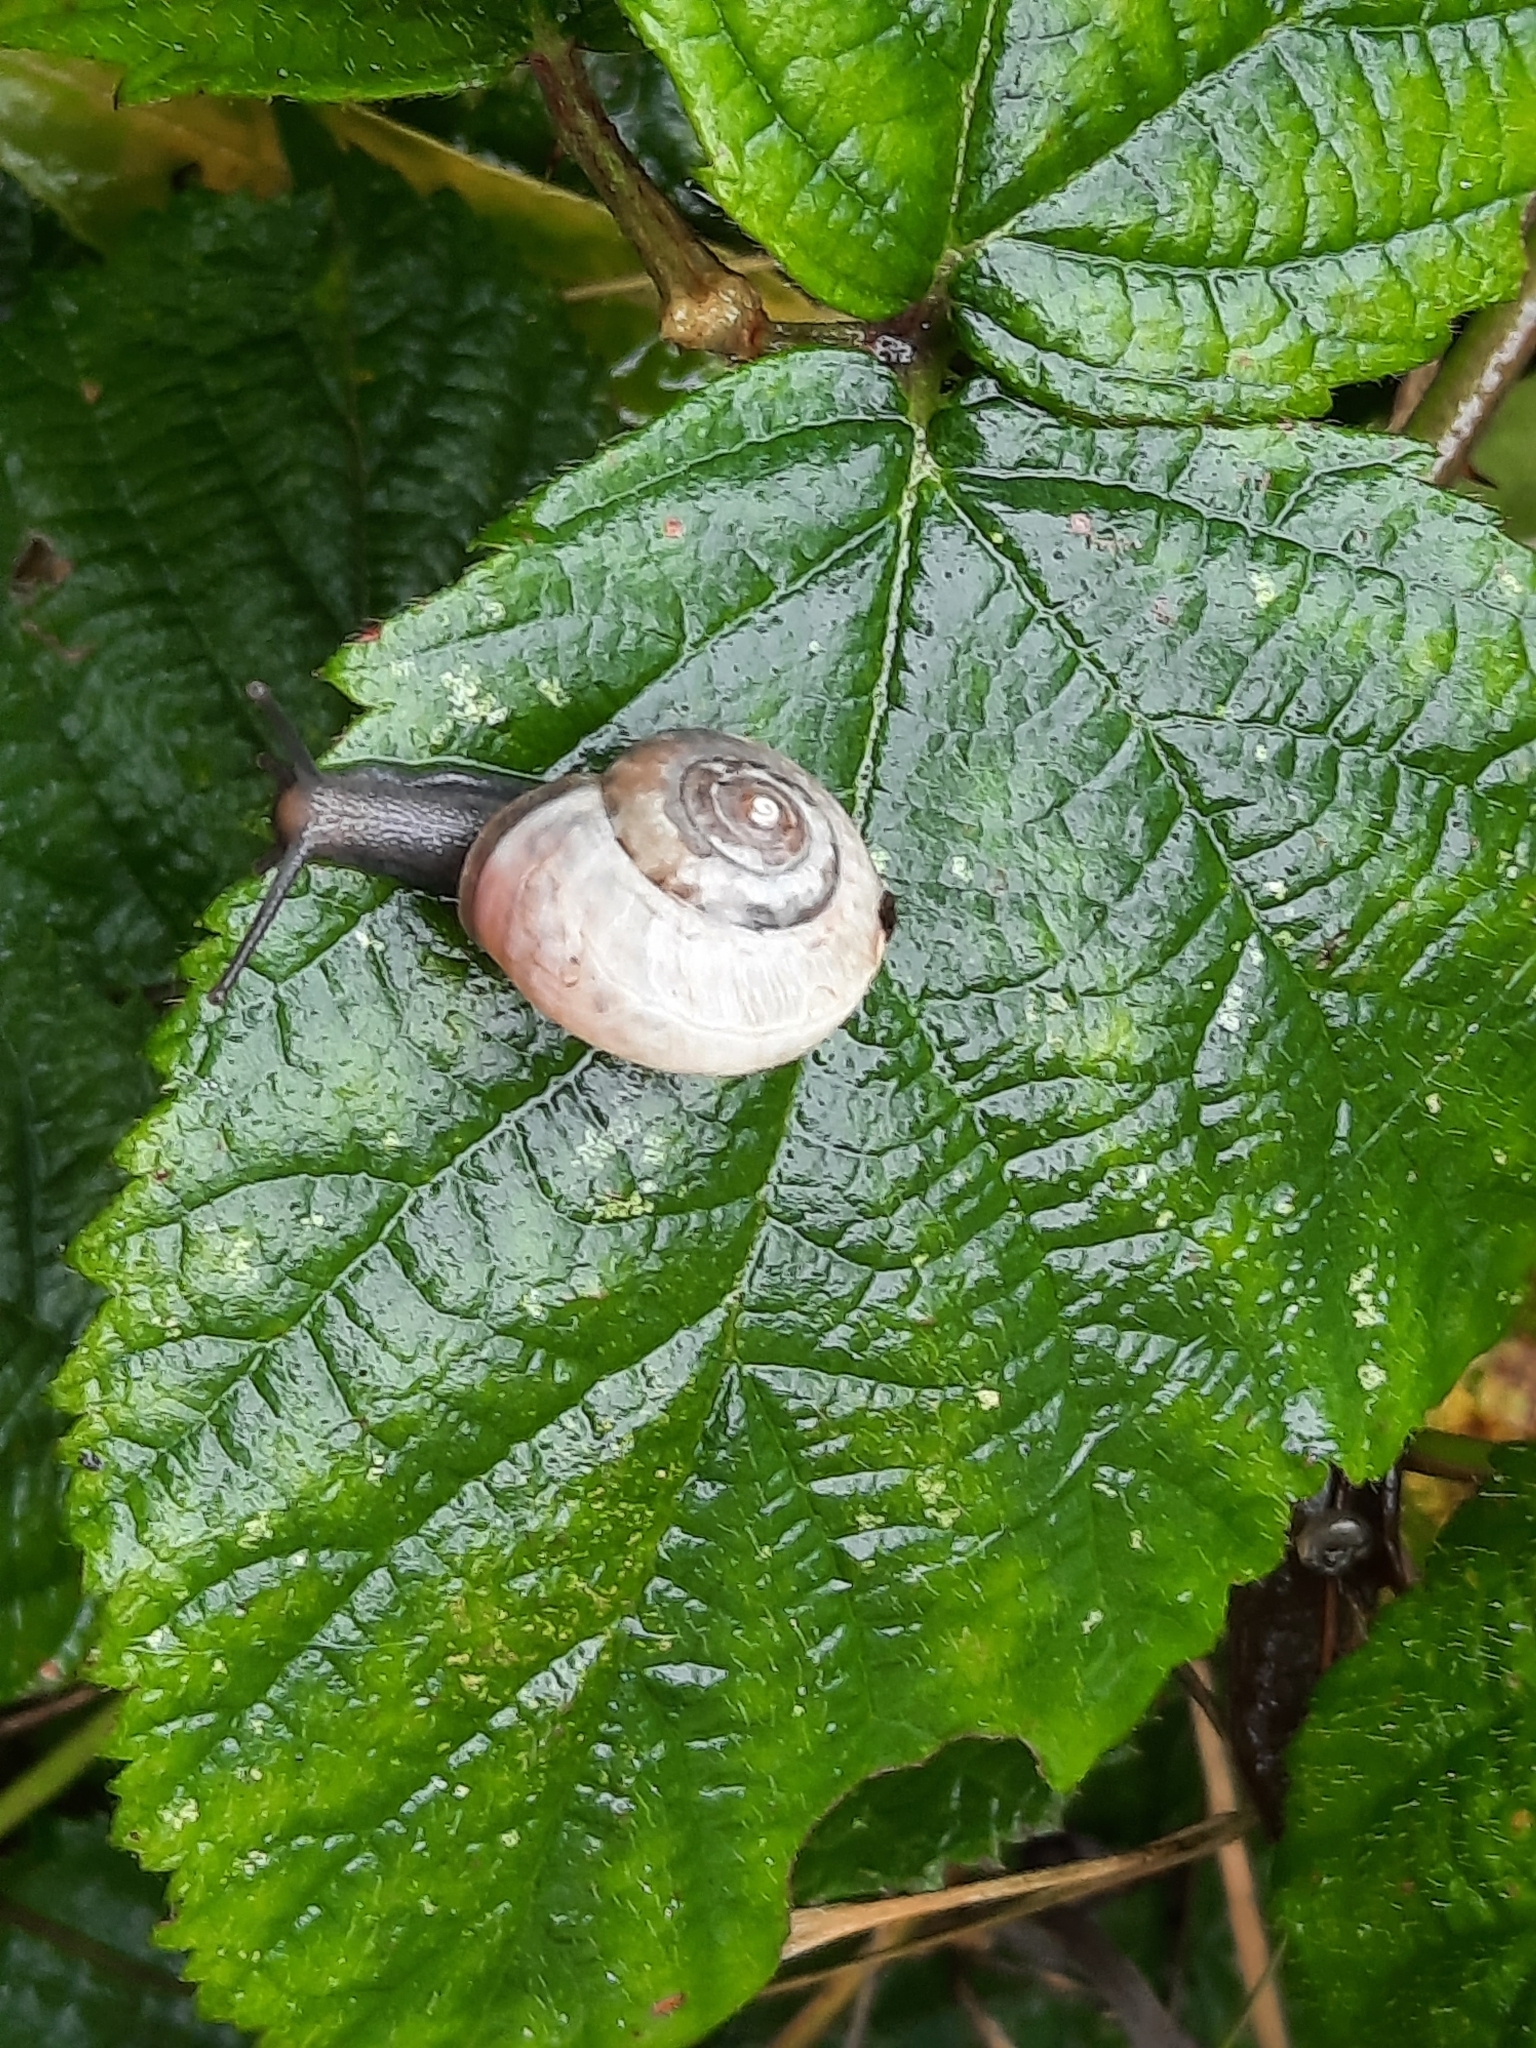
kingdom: Animalia
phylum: Mollusca
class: Gastropoda
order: Stylommatophora
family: Hygromiidae
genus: Monacha
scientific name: Monacha cantiana
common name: Kentish snail
